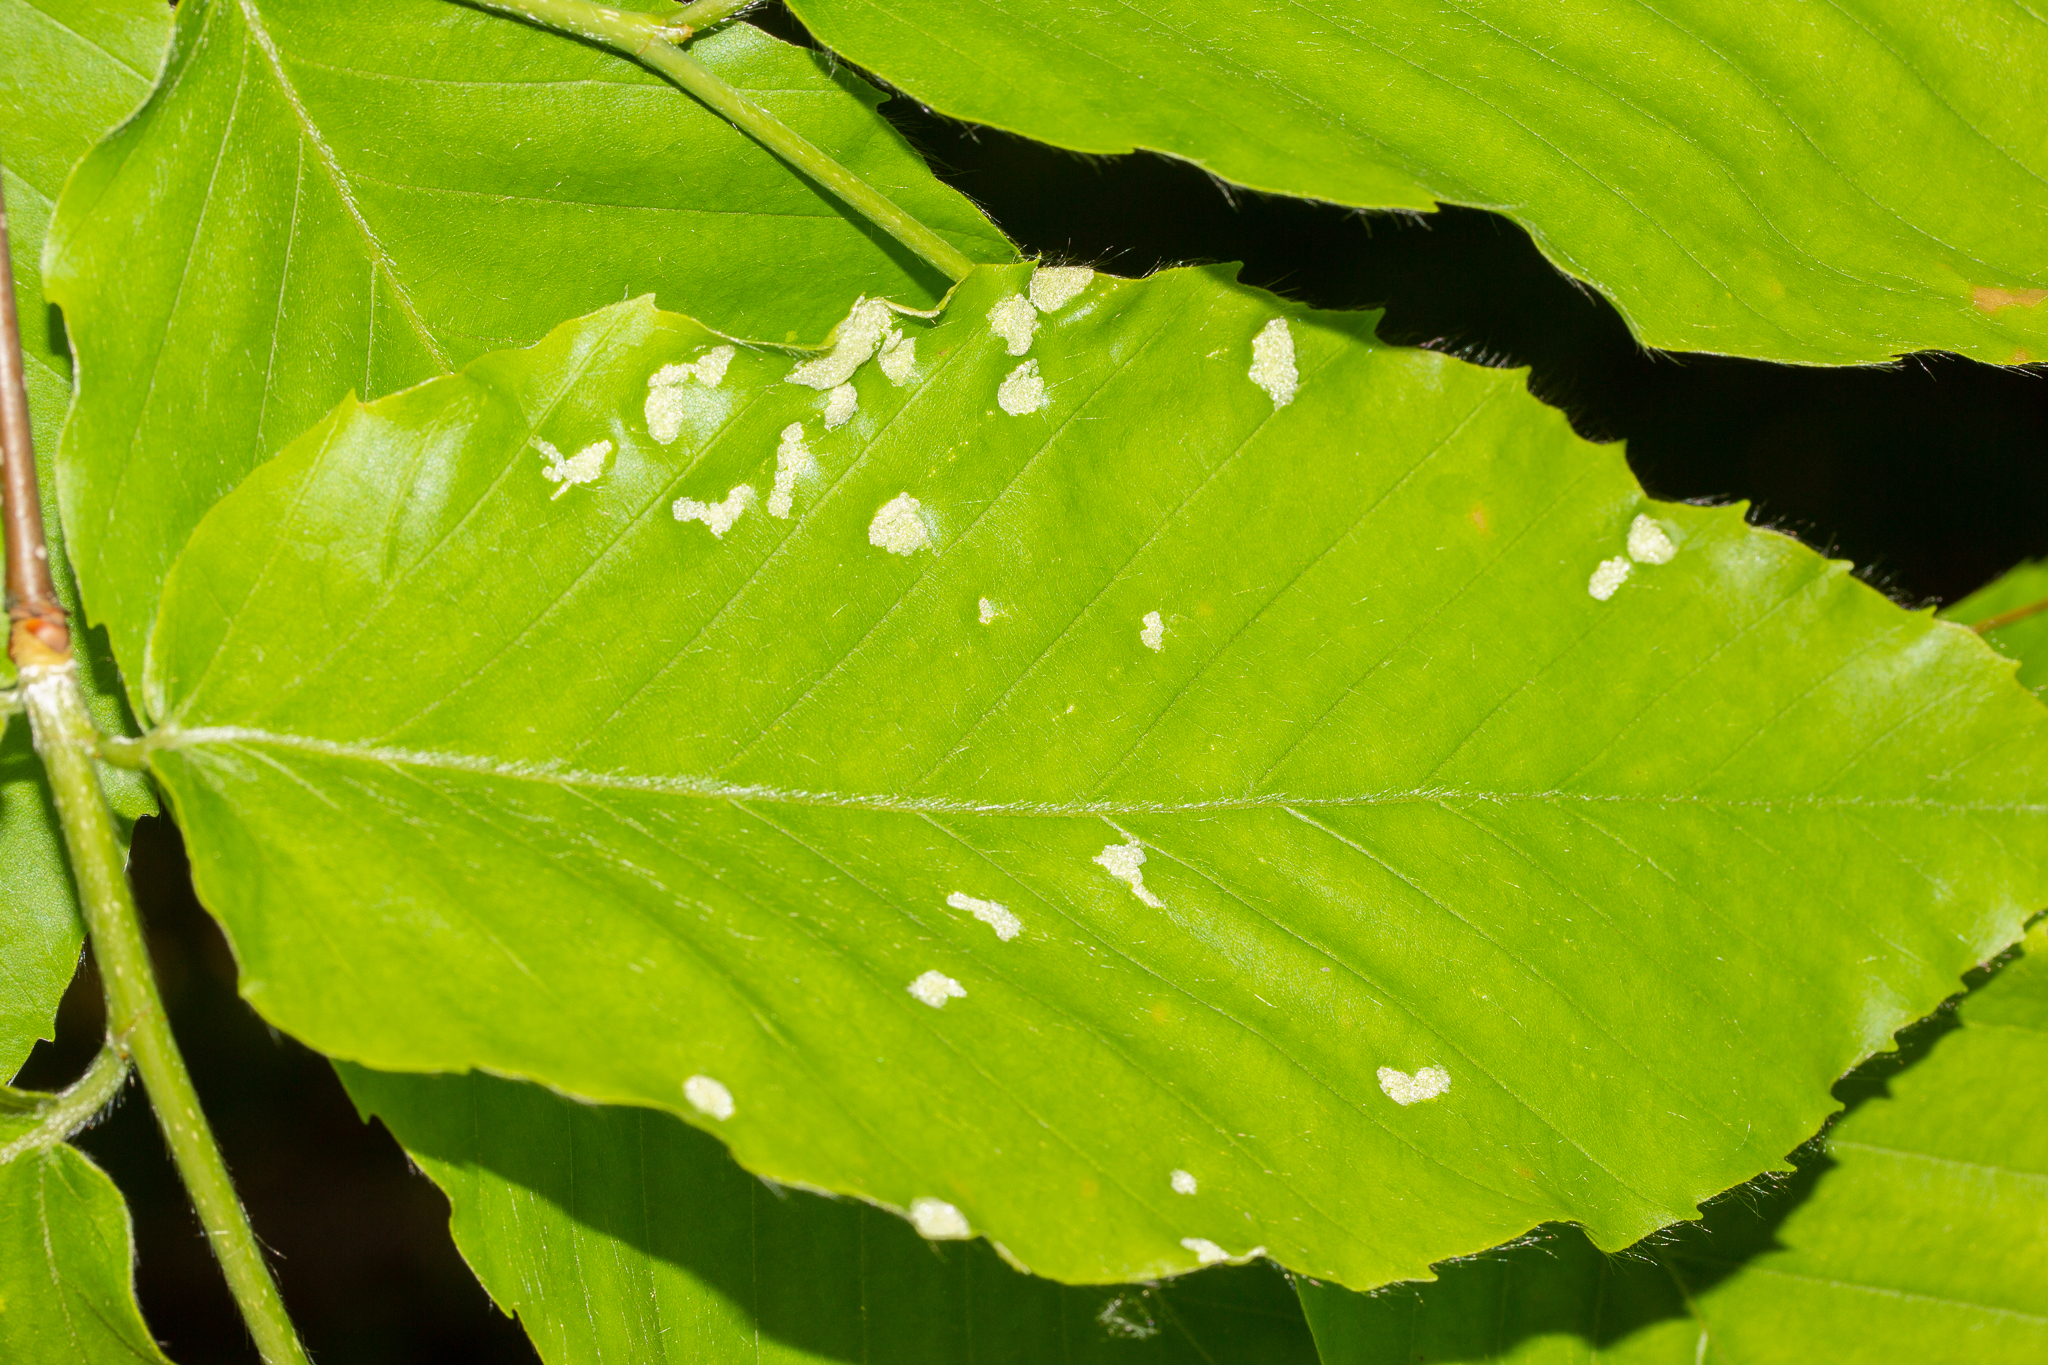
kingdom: Animalia
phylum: Arthropoda
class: Arachnida
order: Trombidiformes
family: Eriophyidae
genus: Acalitus
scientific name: Acalitus
